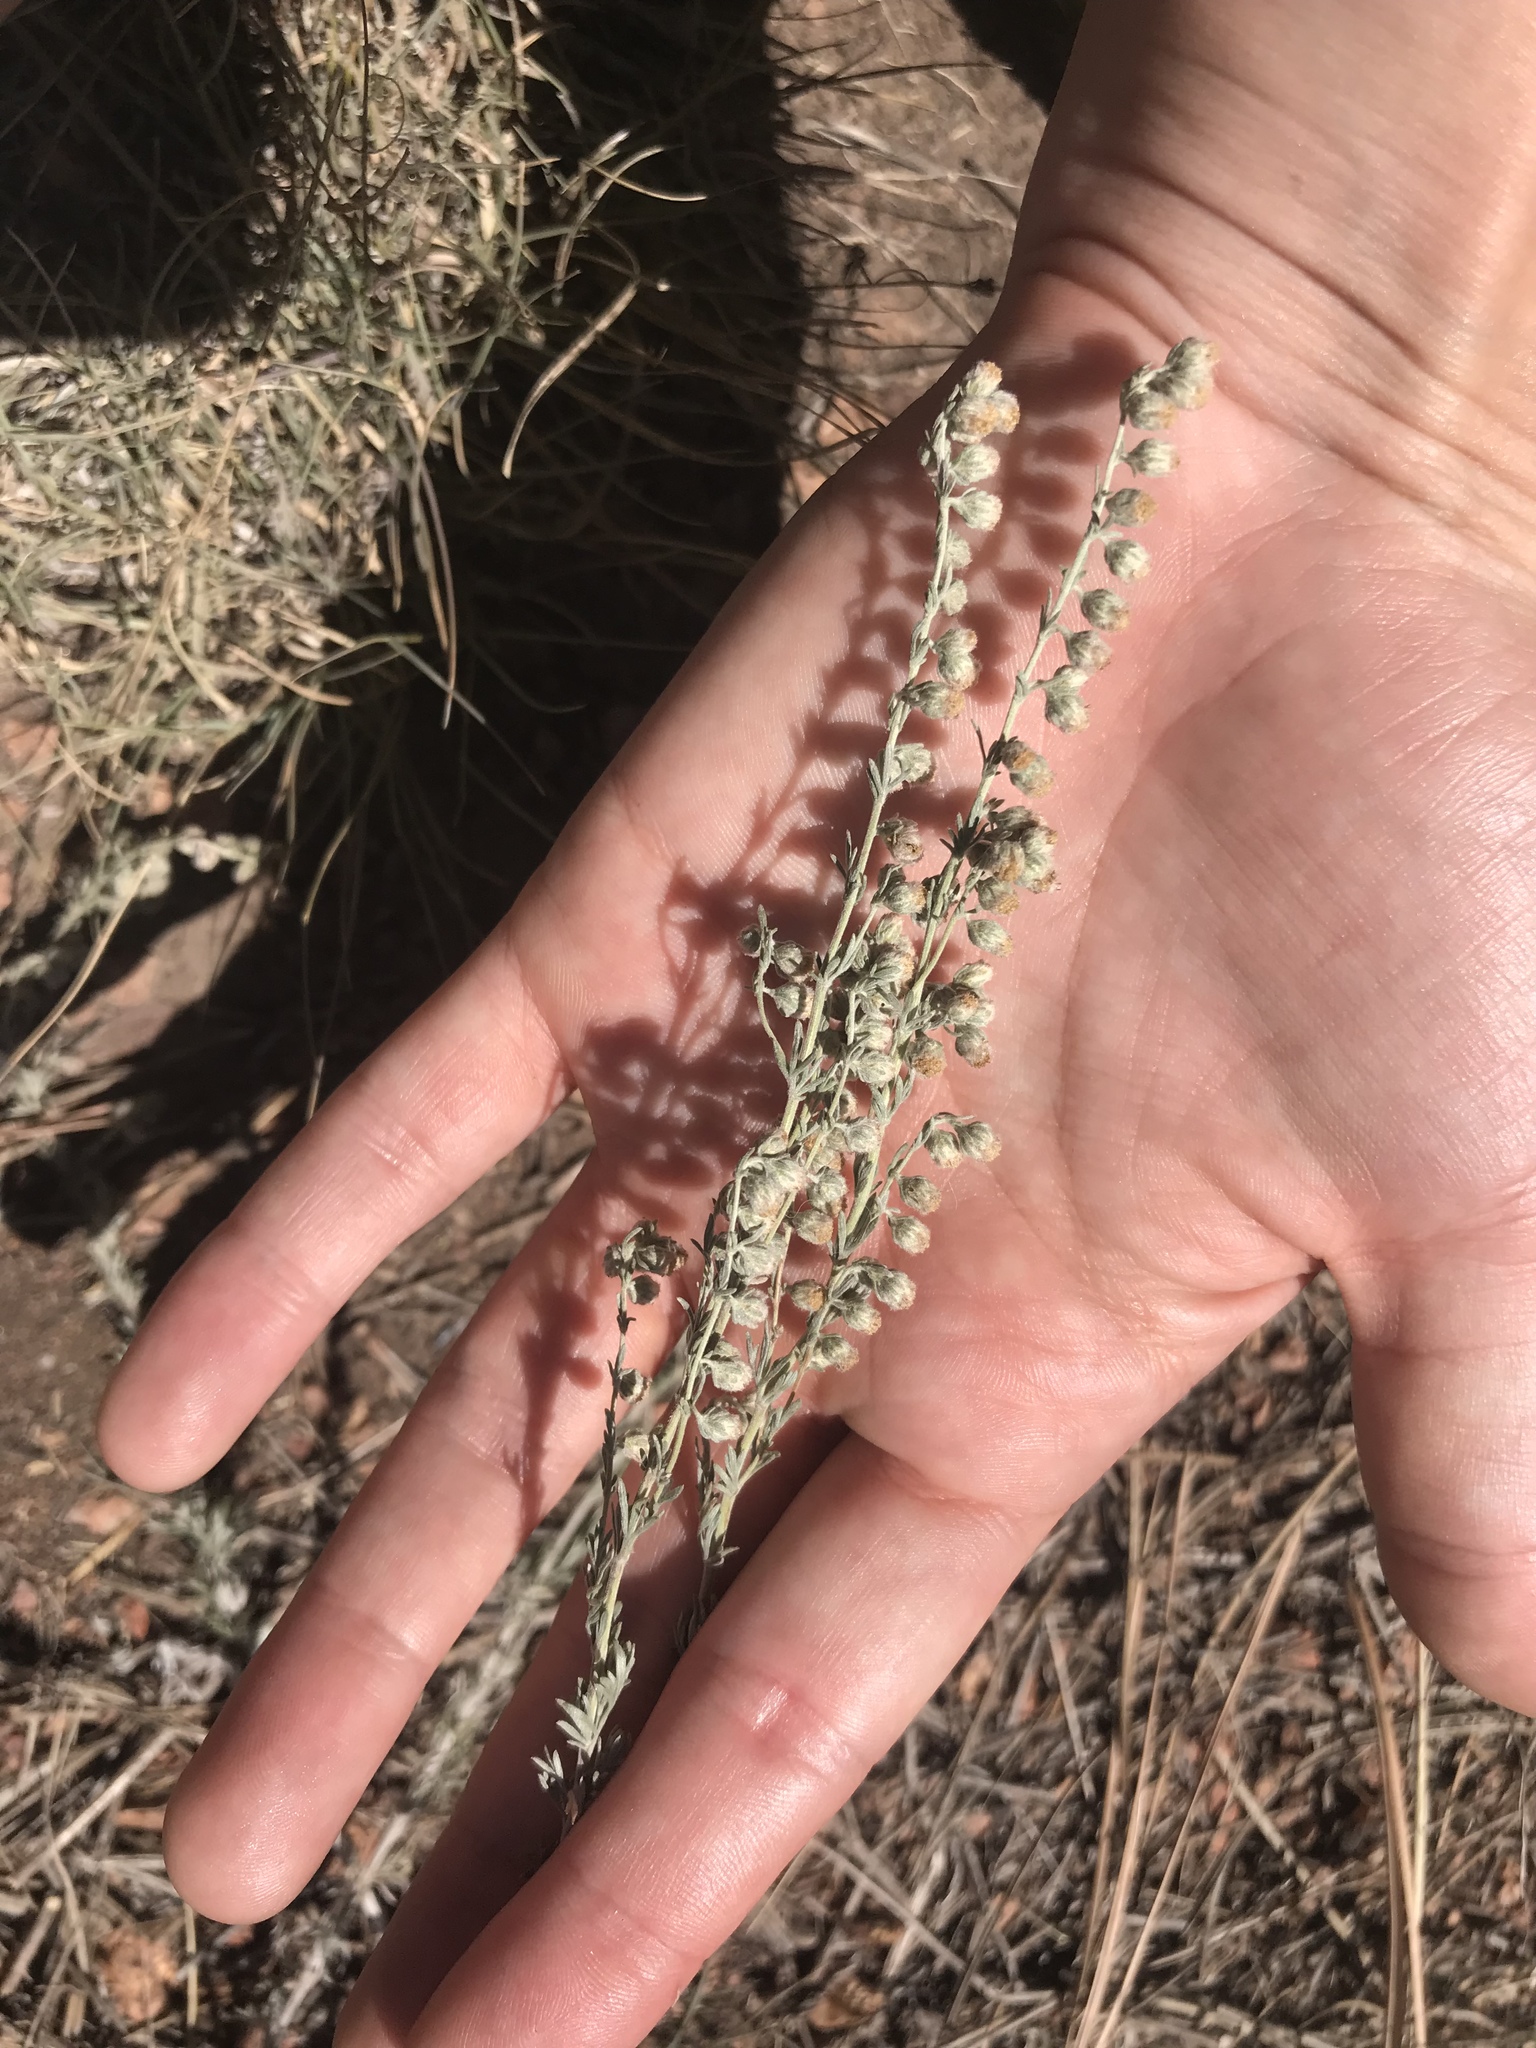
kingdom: Plantae
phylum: Tracheophyta
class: Magnoliopsida
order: Asterales
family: Asteraceae
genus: Artemisia
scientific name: Artemisia frigida
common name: Prairie sagewort
